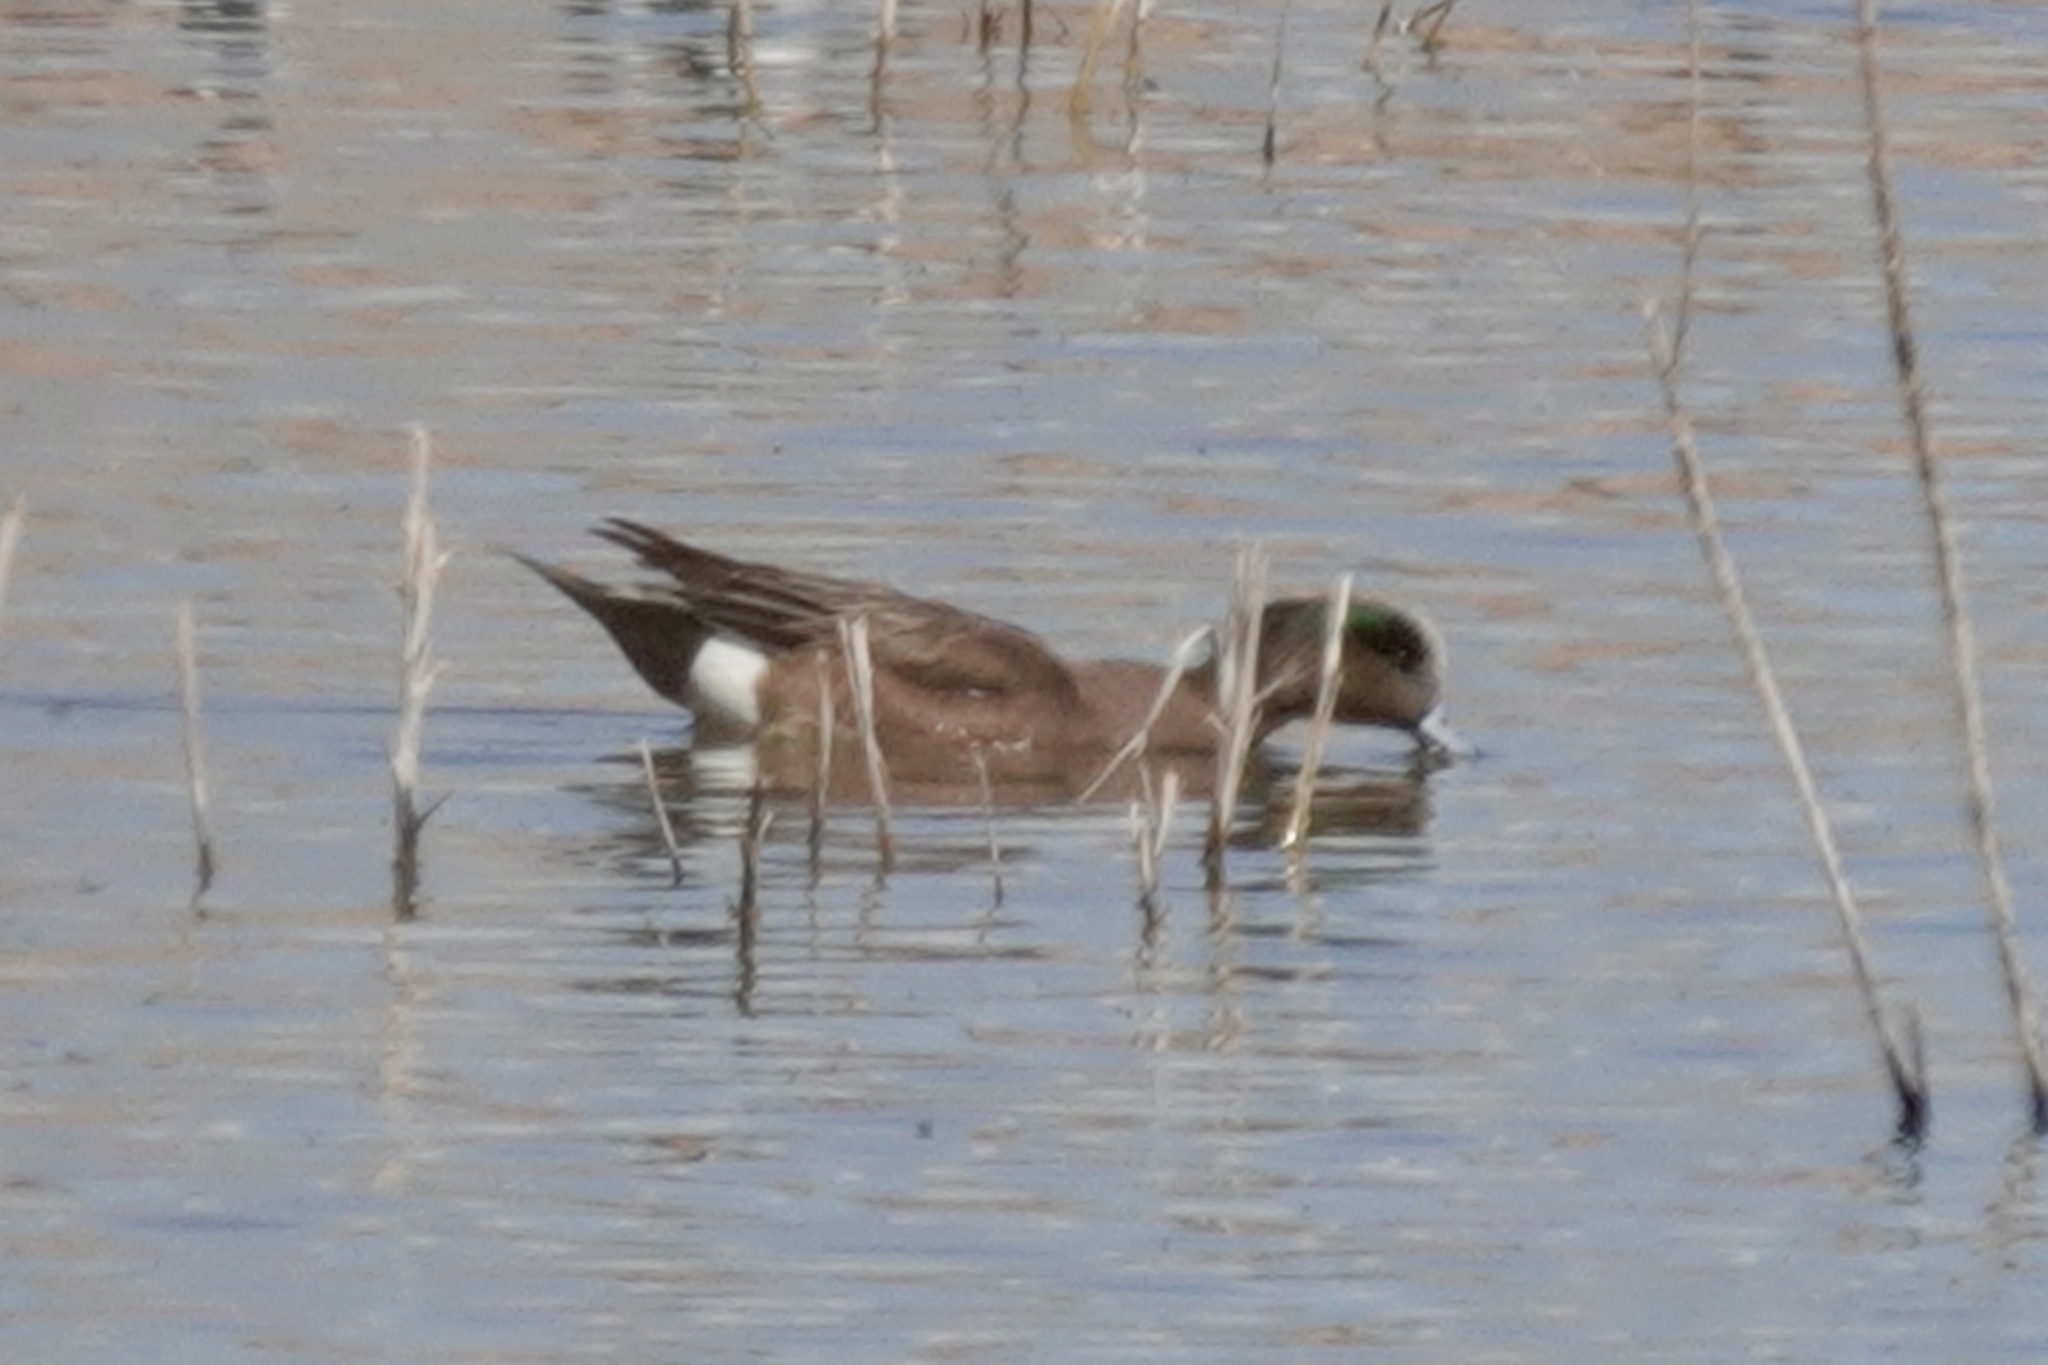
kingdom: Animalia
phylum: Chordata
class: Aves
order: Anseriformes
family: Anatidae
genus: Mareca
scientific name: Mareca americana
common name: American wigeon
